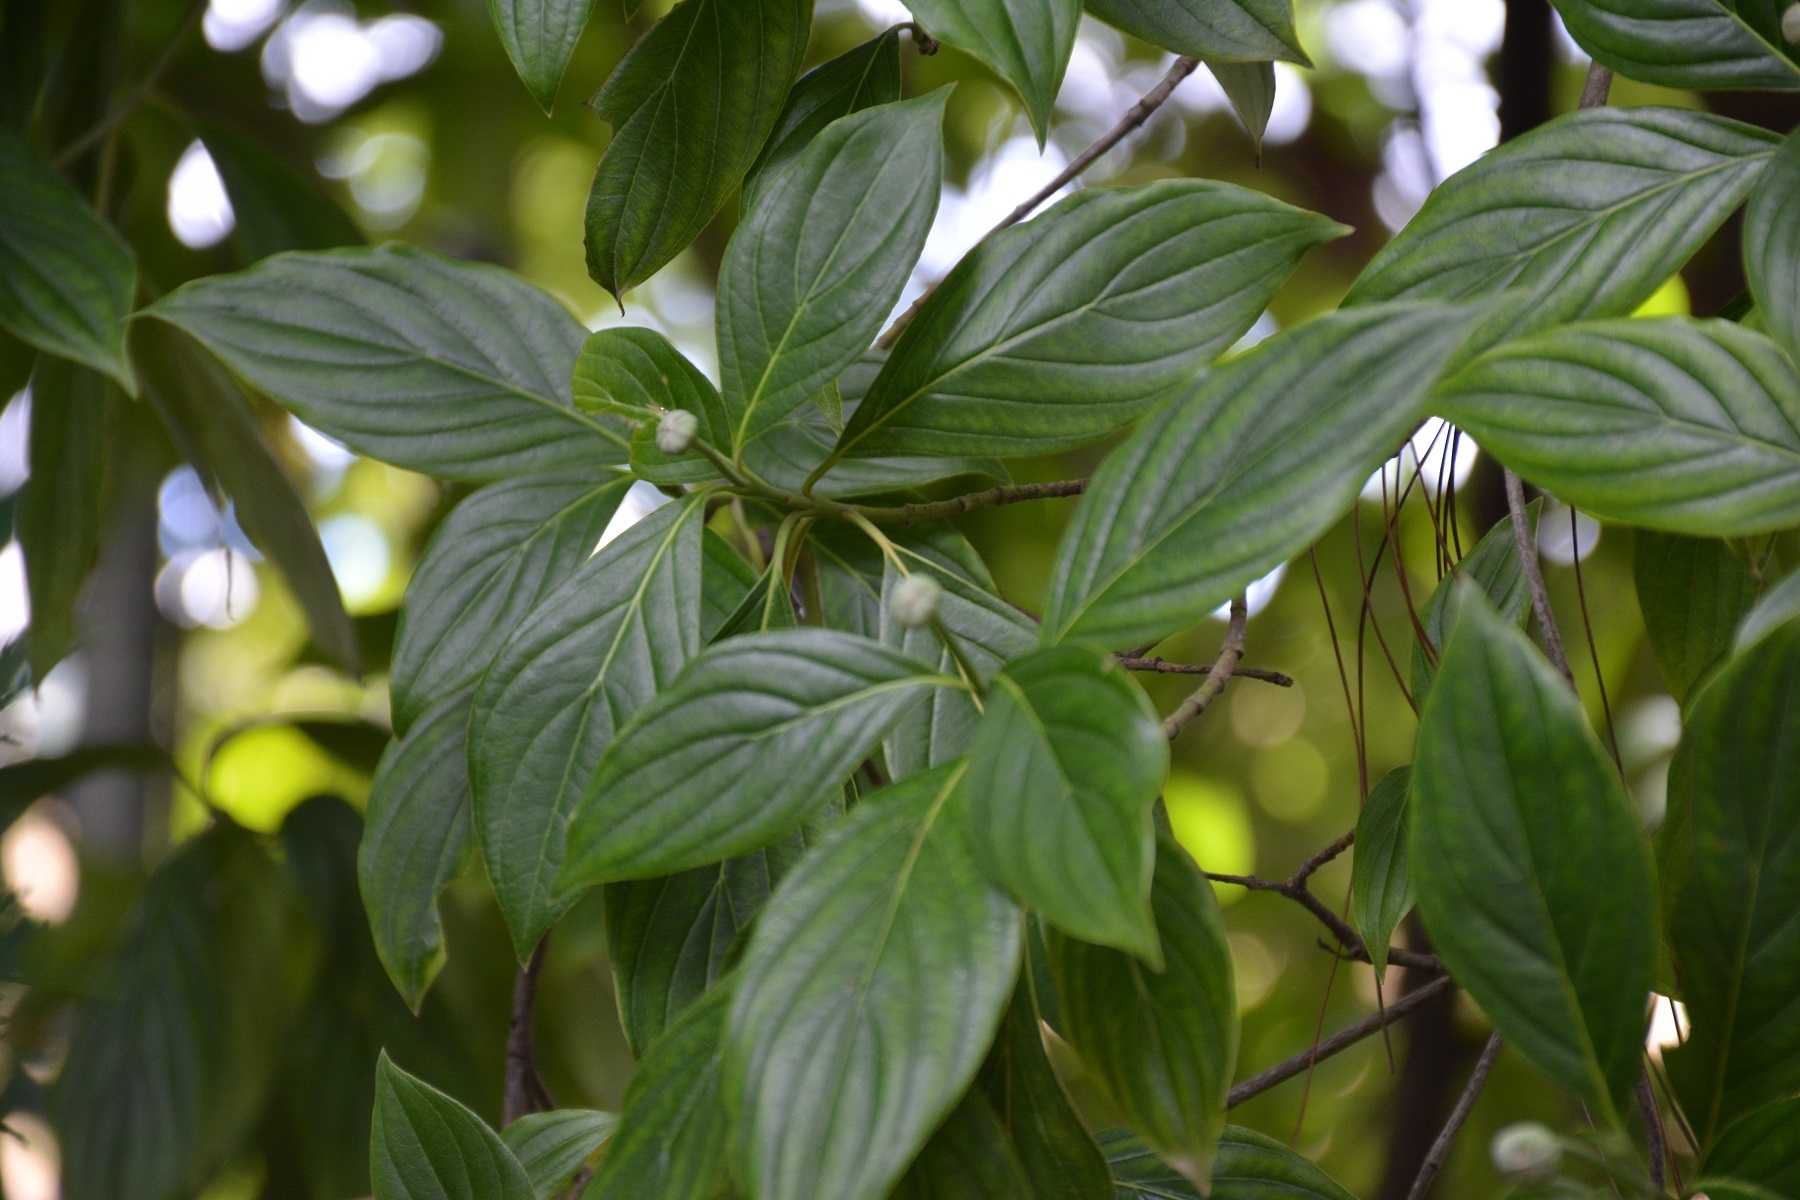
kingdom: Plantae
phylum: Tracheophyta
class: Magnoliopsida
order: Cornales
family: Cornaceae
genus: Cornus
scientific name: Cornus disciflora
